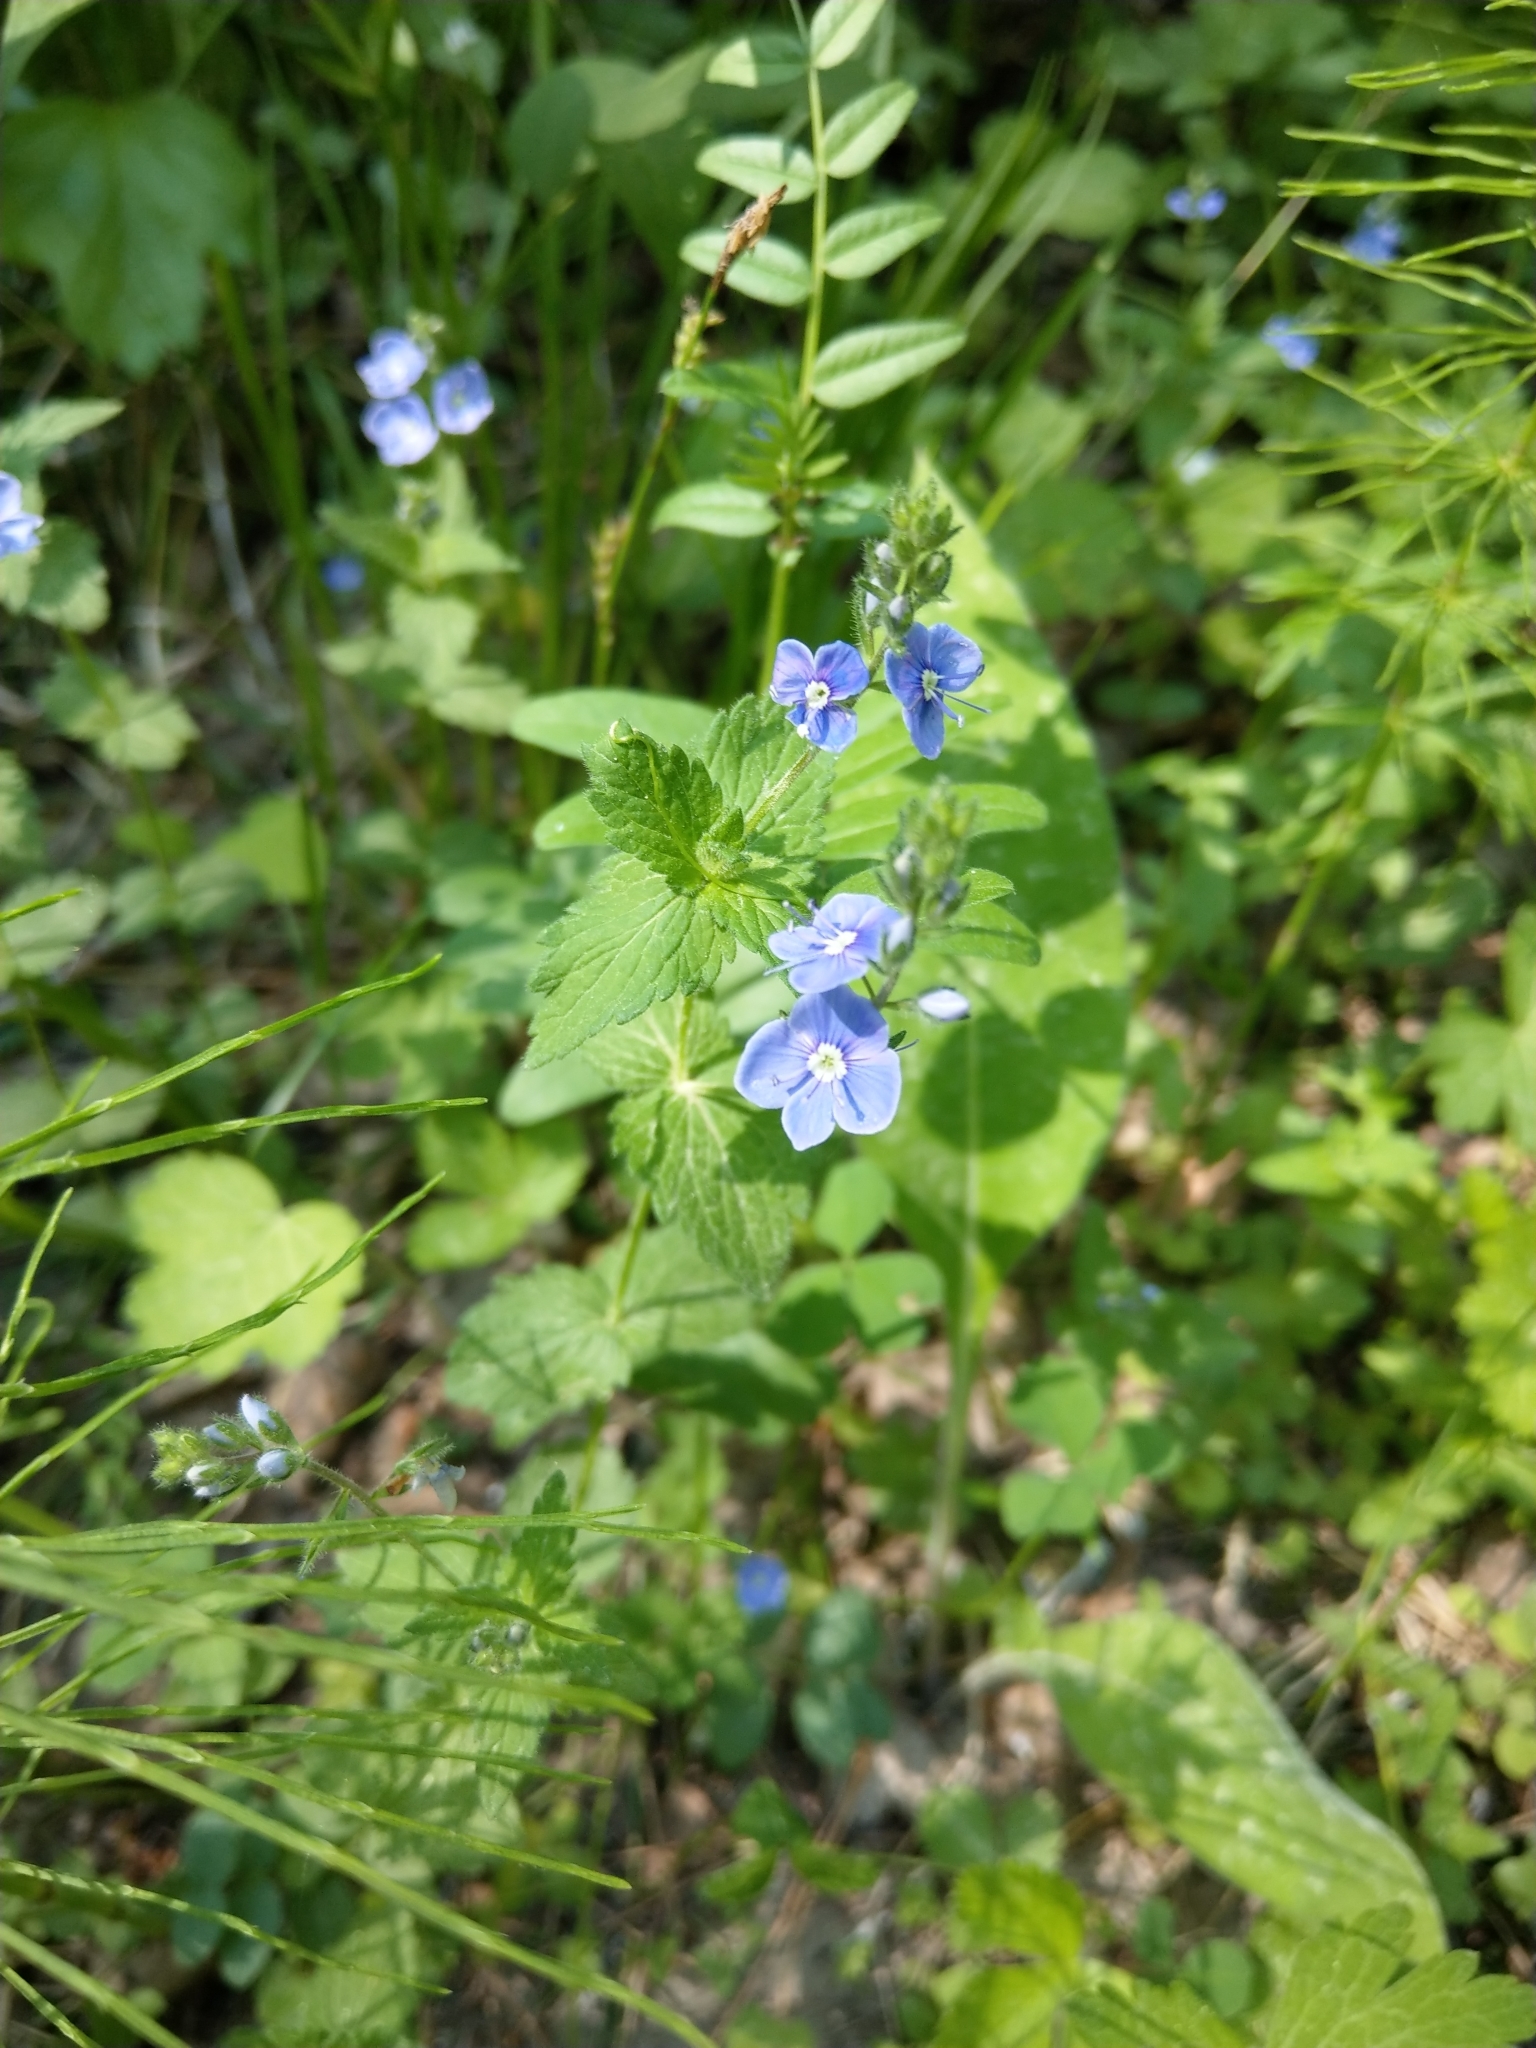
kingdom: Plantae
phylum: Tracheophyta
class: Magnoliopsida
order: Lamiales
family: Plantaginaceae
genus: Veronica
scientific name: Veronica chamaedrys
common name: Germander speedwell
